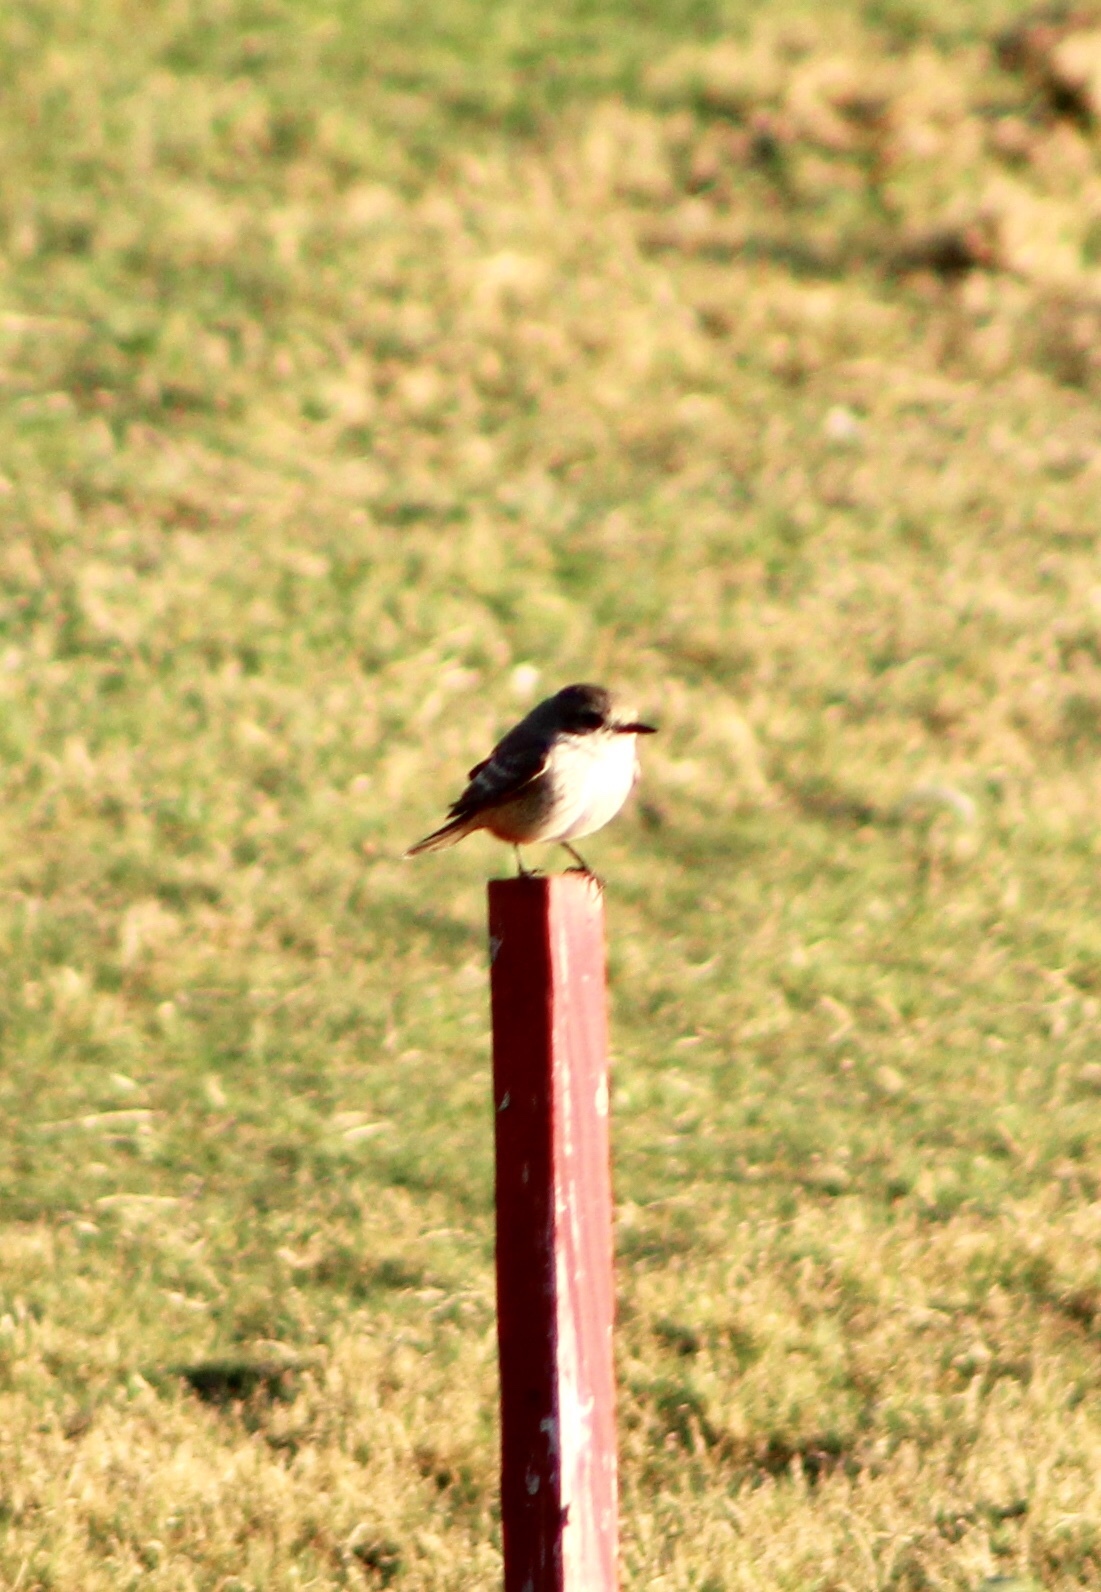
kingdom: Animalia
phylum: Chordata
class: Aves
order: Passeriformes
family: Tyrannidae
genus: Pyrocephalus
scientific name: Pyrocephalus rubinus
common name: Vermilion flycatcher
